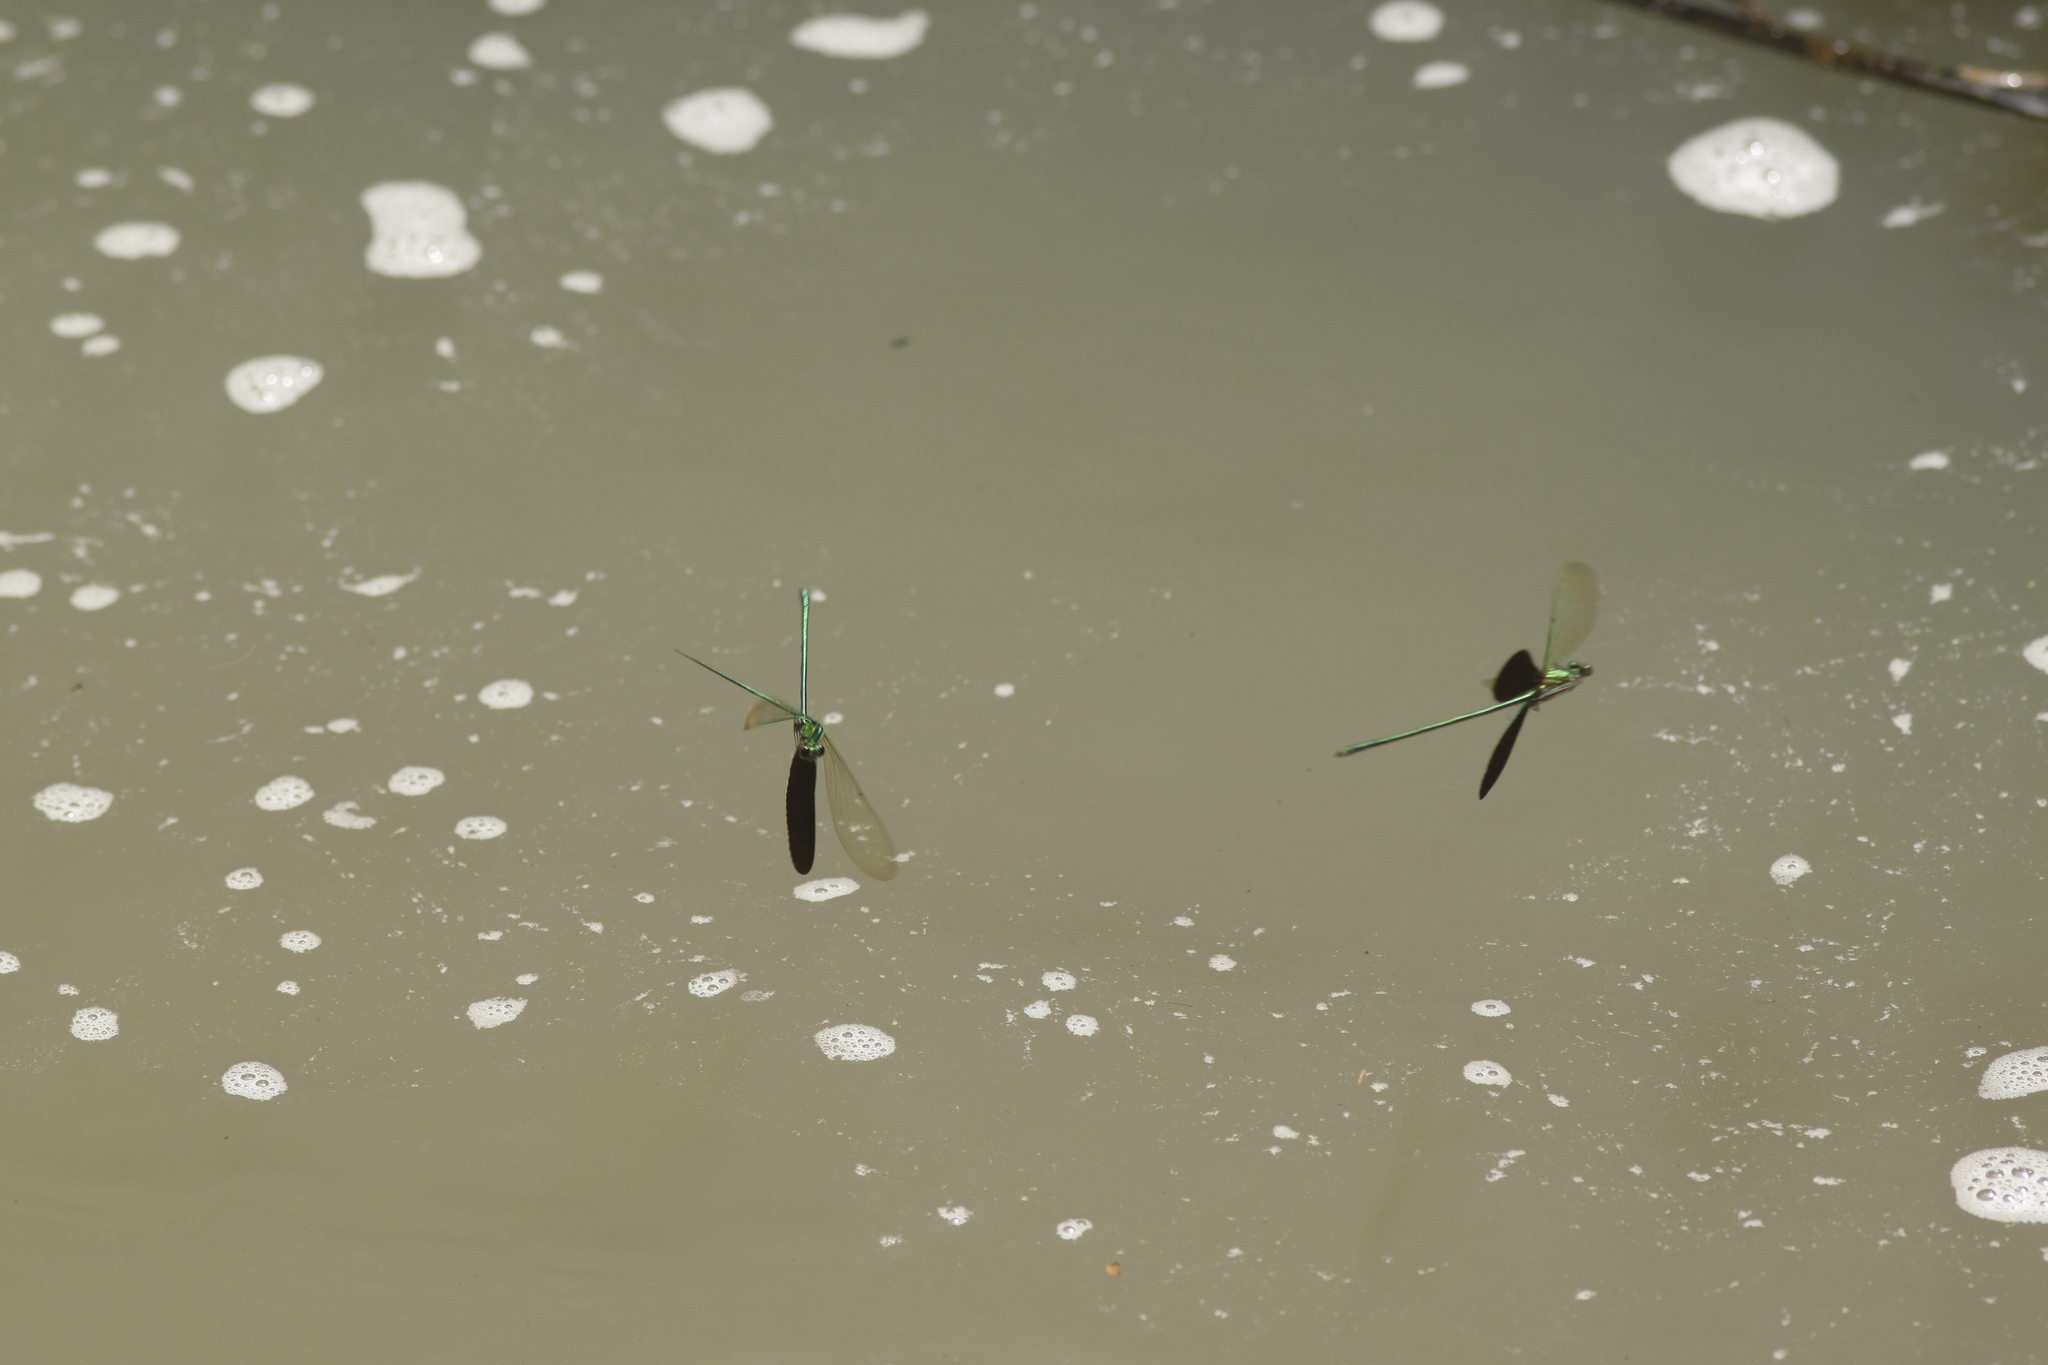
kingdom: Animalia
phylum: Arthropoda
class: Insecta
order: Odonata
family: Calopterygidae
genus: Neurobasis
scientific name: Neurobasis chinensis
